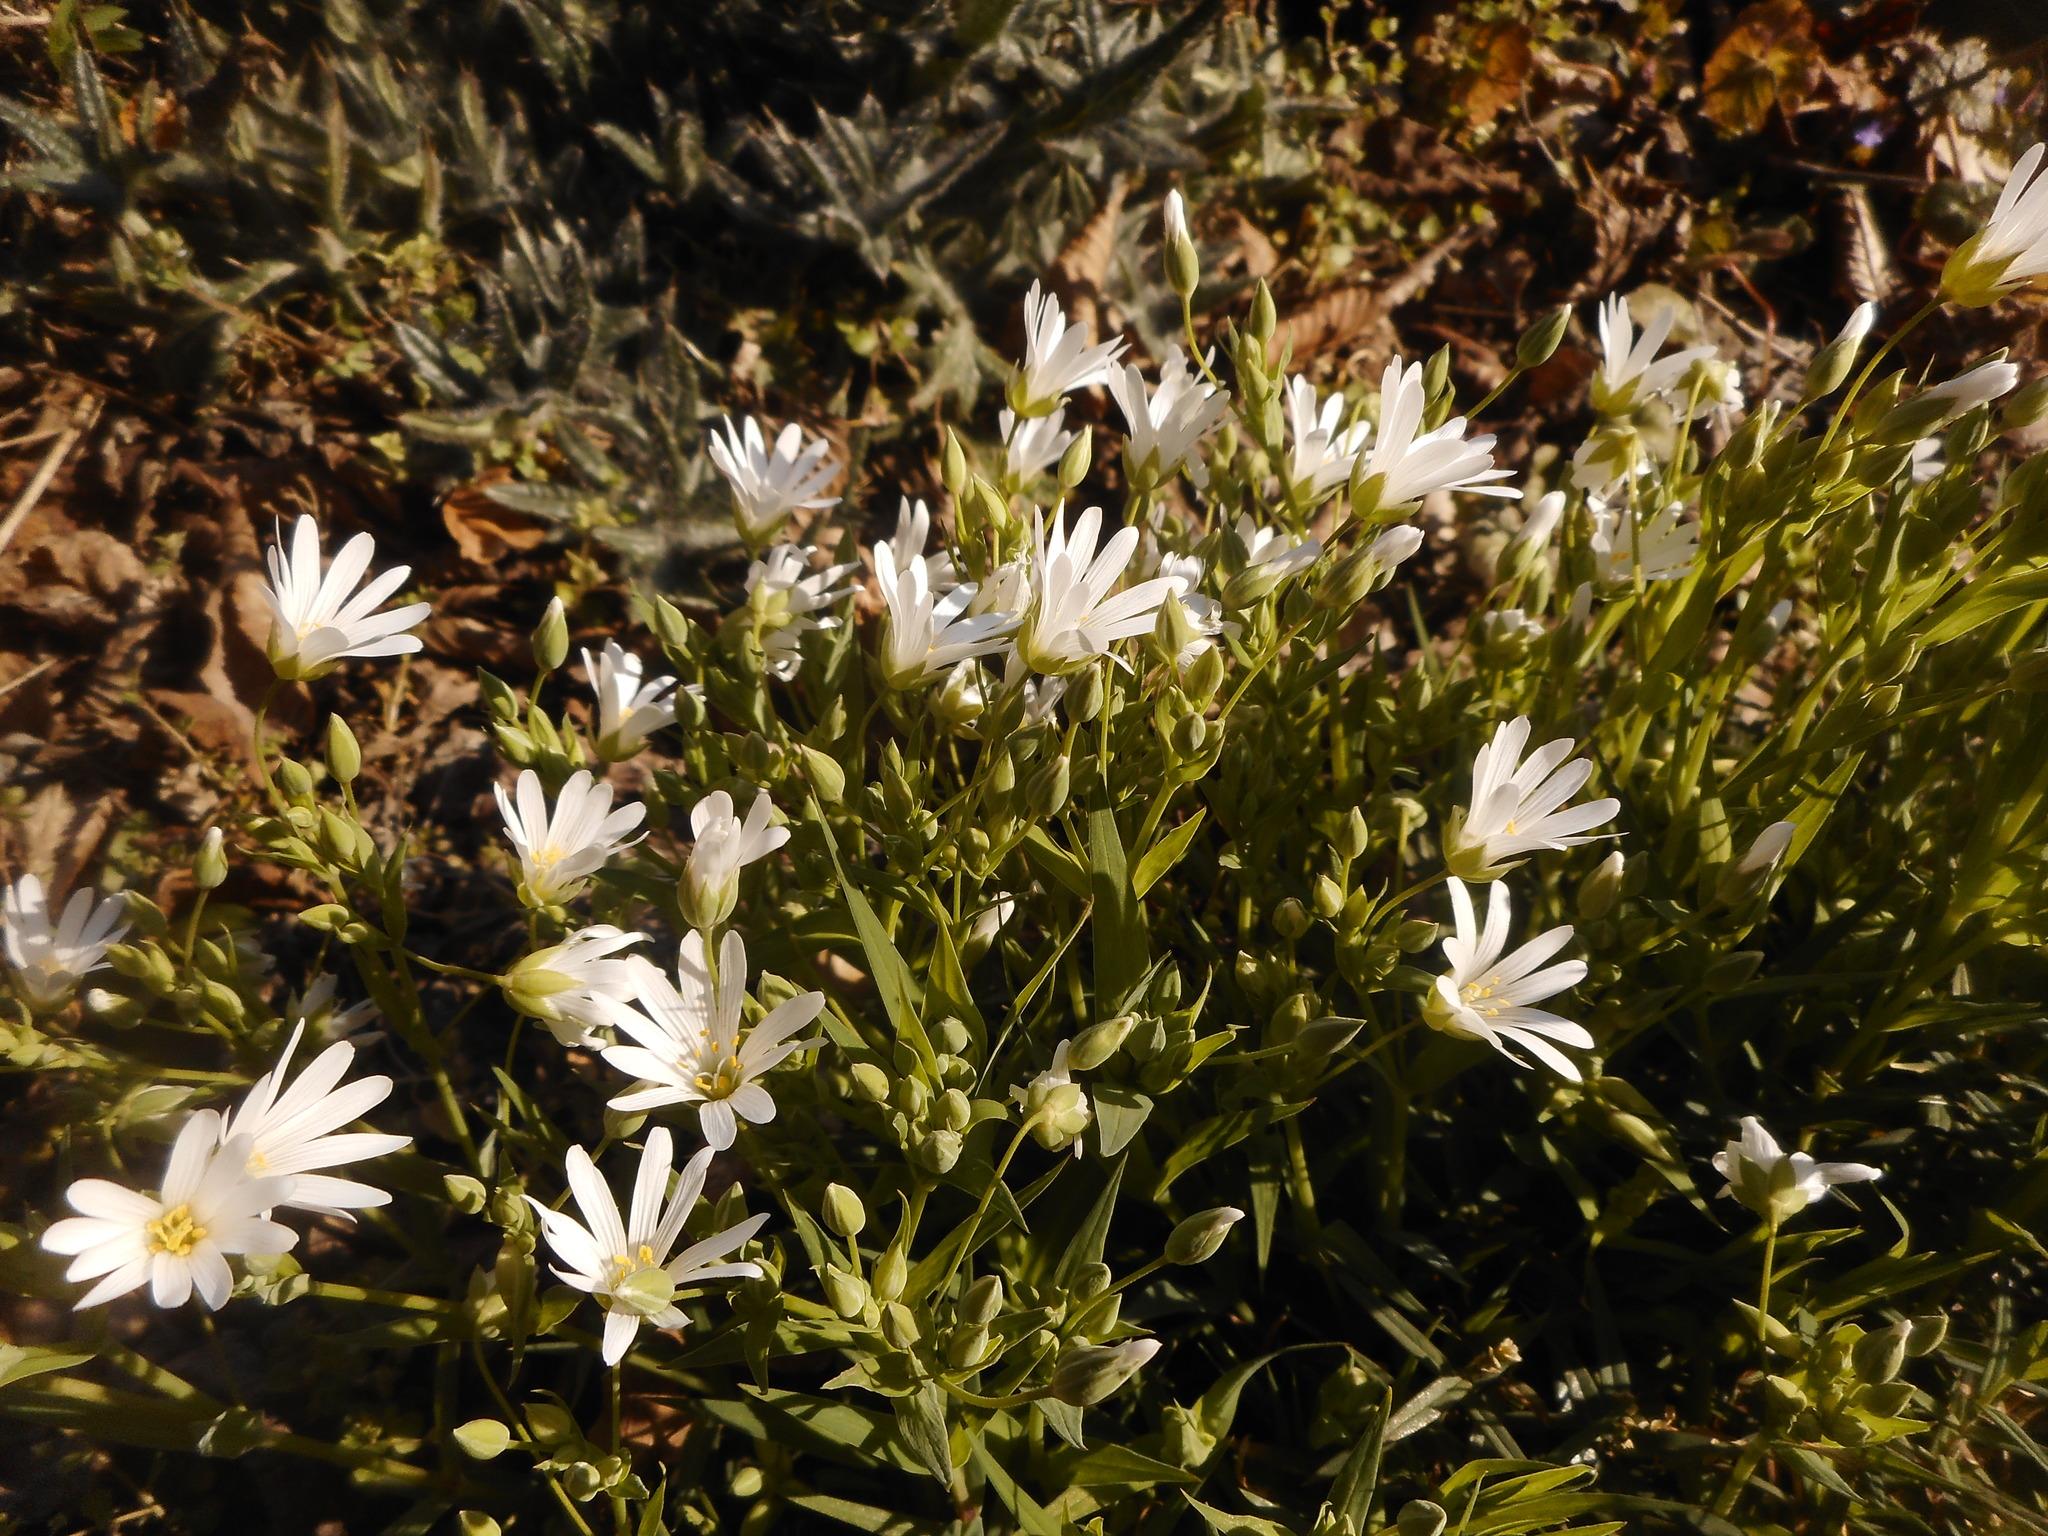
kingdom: Plantae
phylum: Tracheophyta
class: Magnoliopsida
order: Caryophyllales
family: Caryophyllaceae
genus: Rabelera
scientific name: Rabelera holostea
